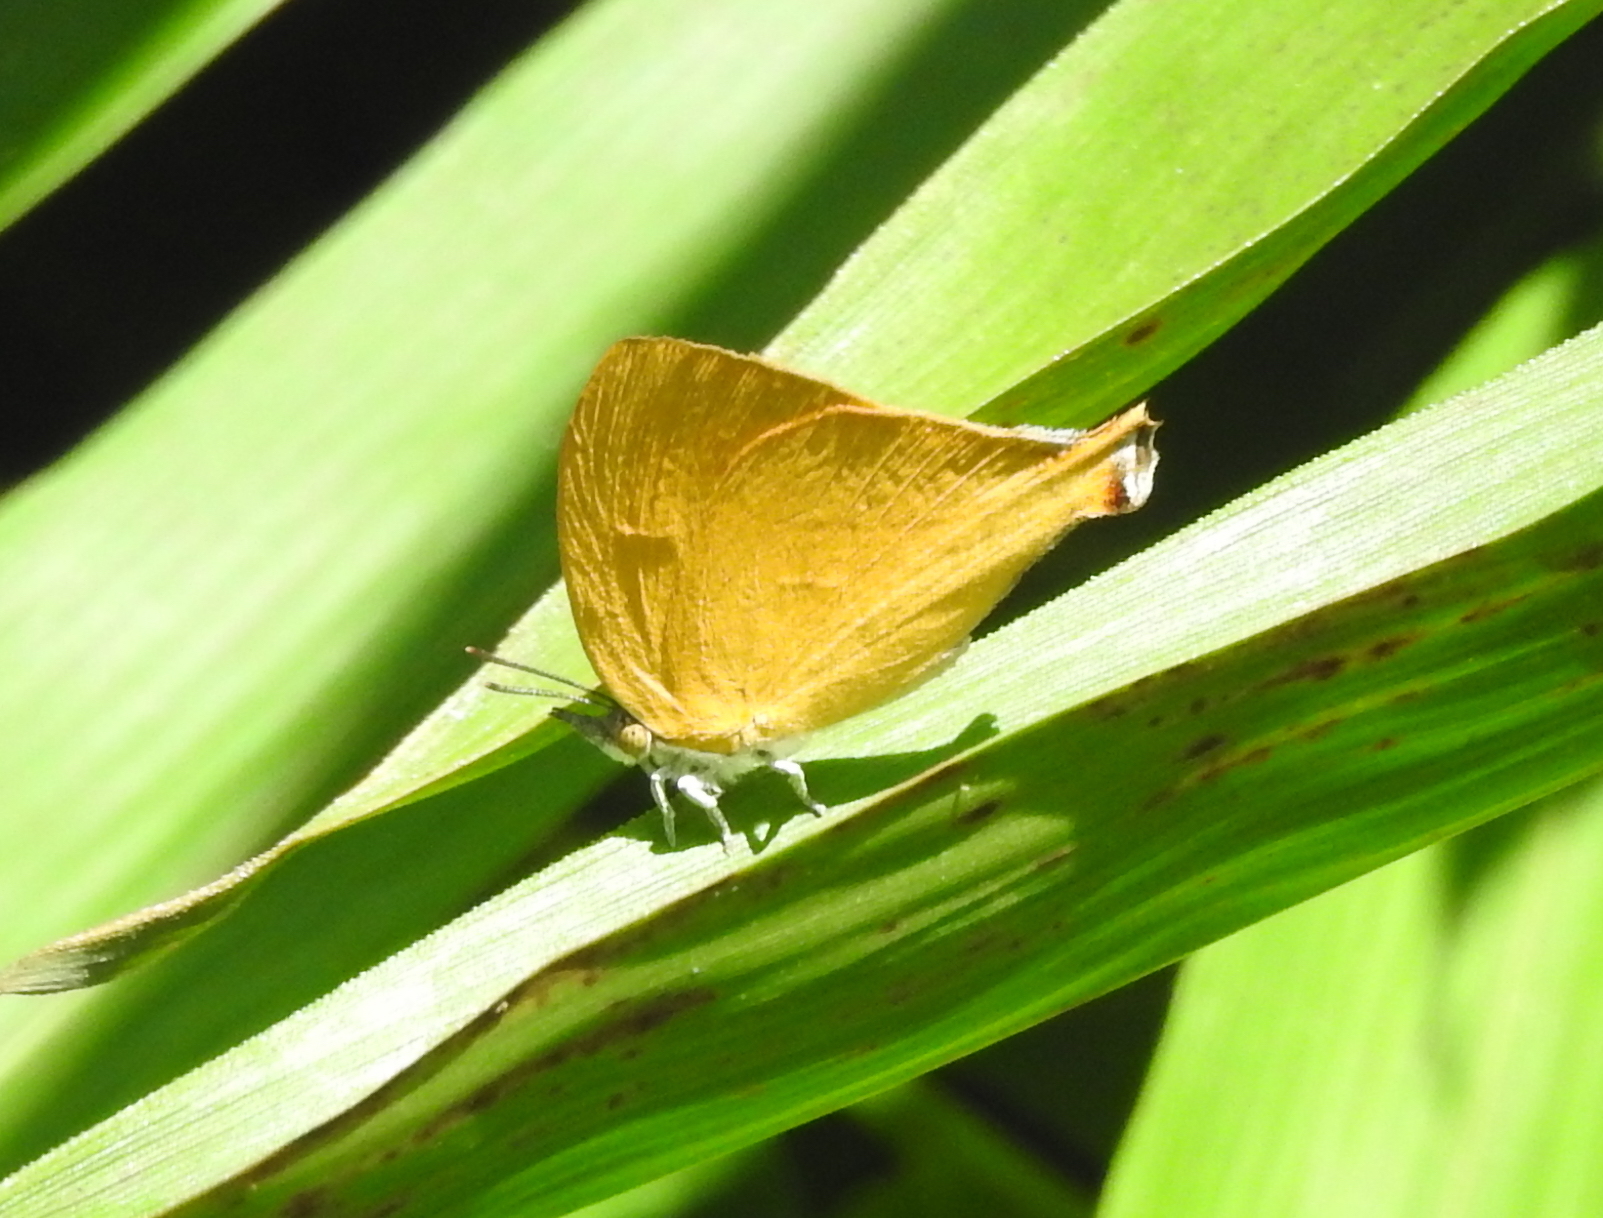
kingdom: Animalia
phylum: Arthropoda
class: Insecta
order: Lepidoptera
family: Lycaenidae
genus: Loxura
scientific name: Loxura atymnus
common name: Common yamfly
